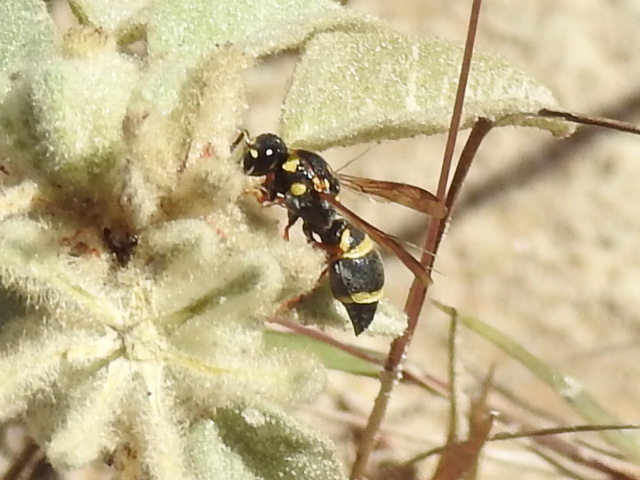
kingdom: Animalia
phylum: Arthropoda
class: Insecta
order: Hymenoptera
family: Eumenidae
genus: Parancistrocerus
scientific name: Parancistrocerus fulvipes
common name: Potter wasp
